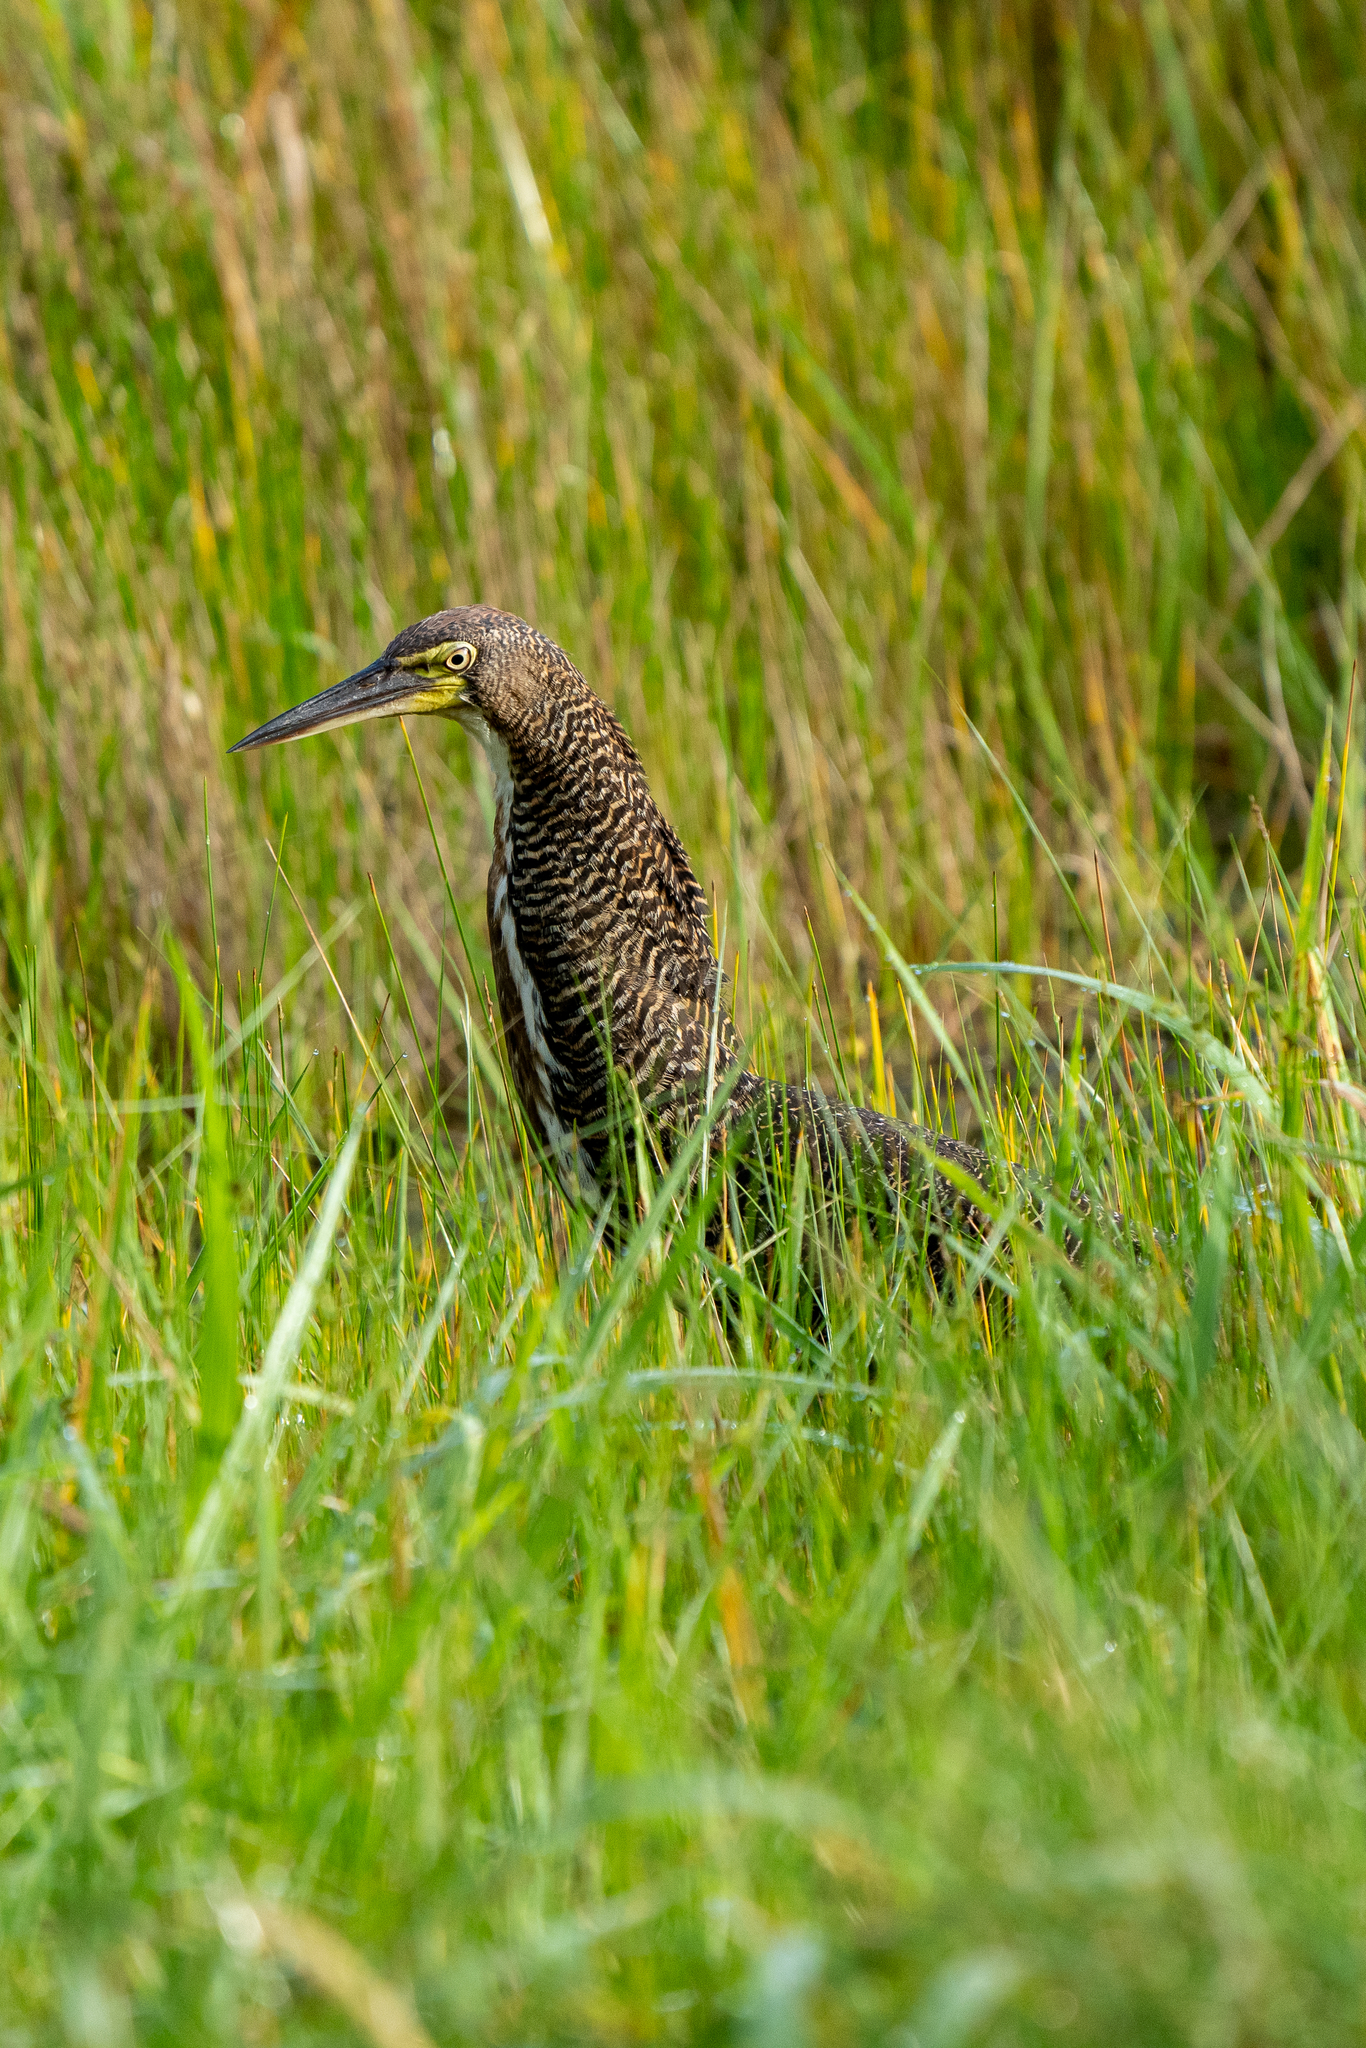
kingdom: Animalia
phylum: Chordata
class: Aves
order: Pelecaniformes
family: Ardeidae
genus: Tigrisoma
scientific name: Tigrisoma lineatum
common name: Rufescent tiger-heron
